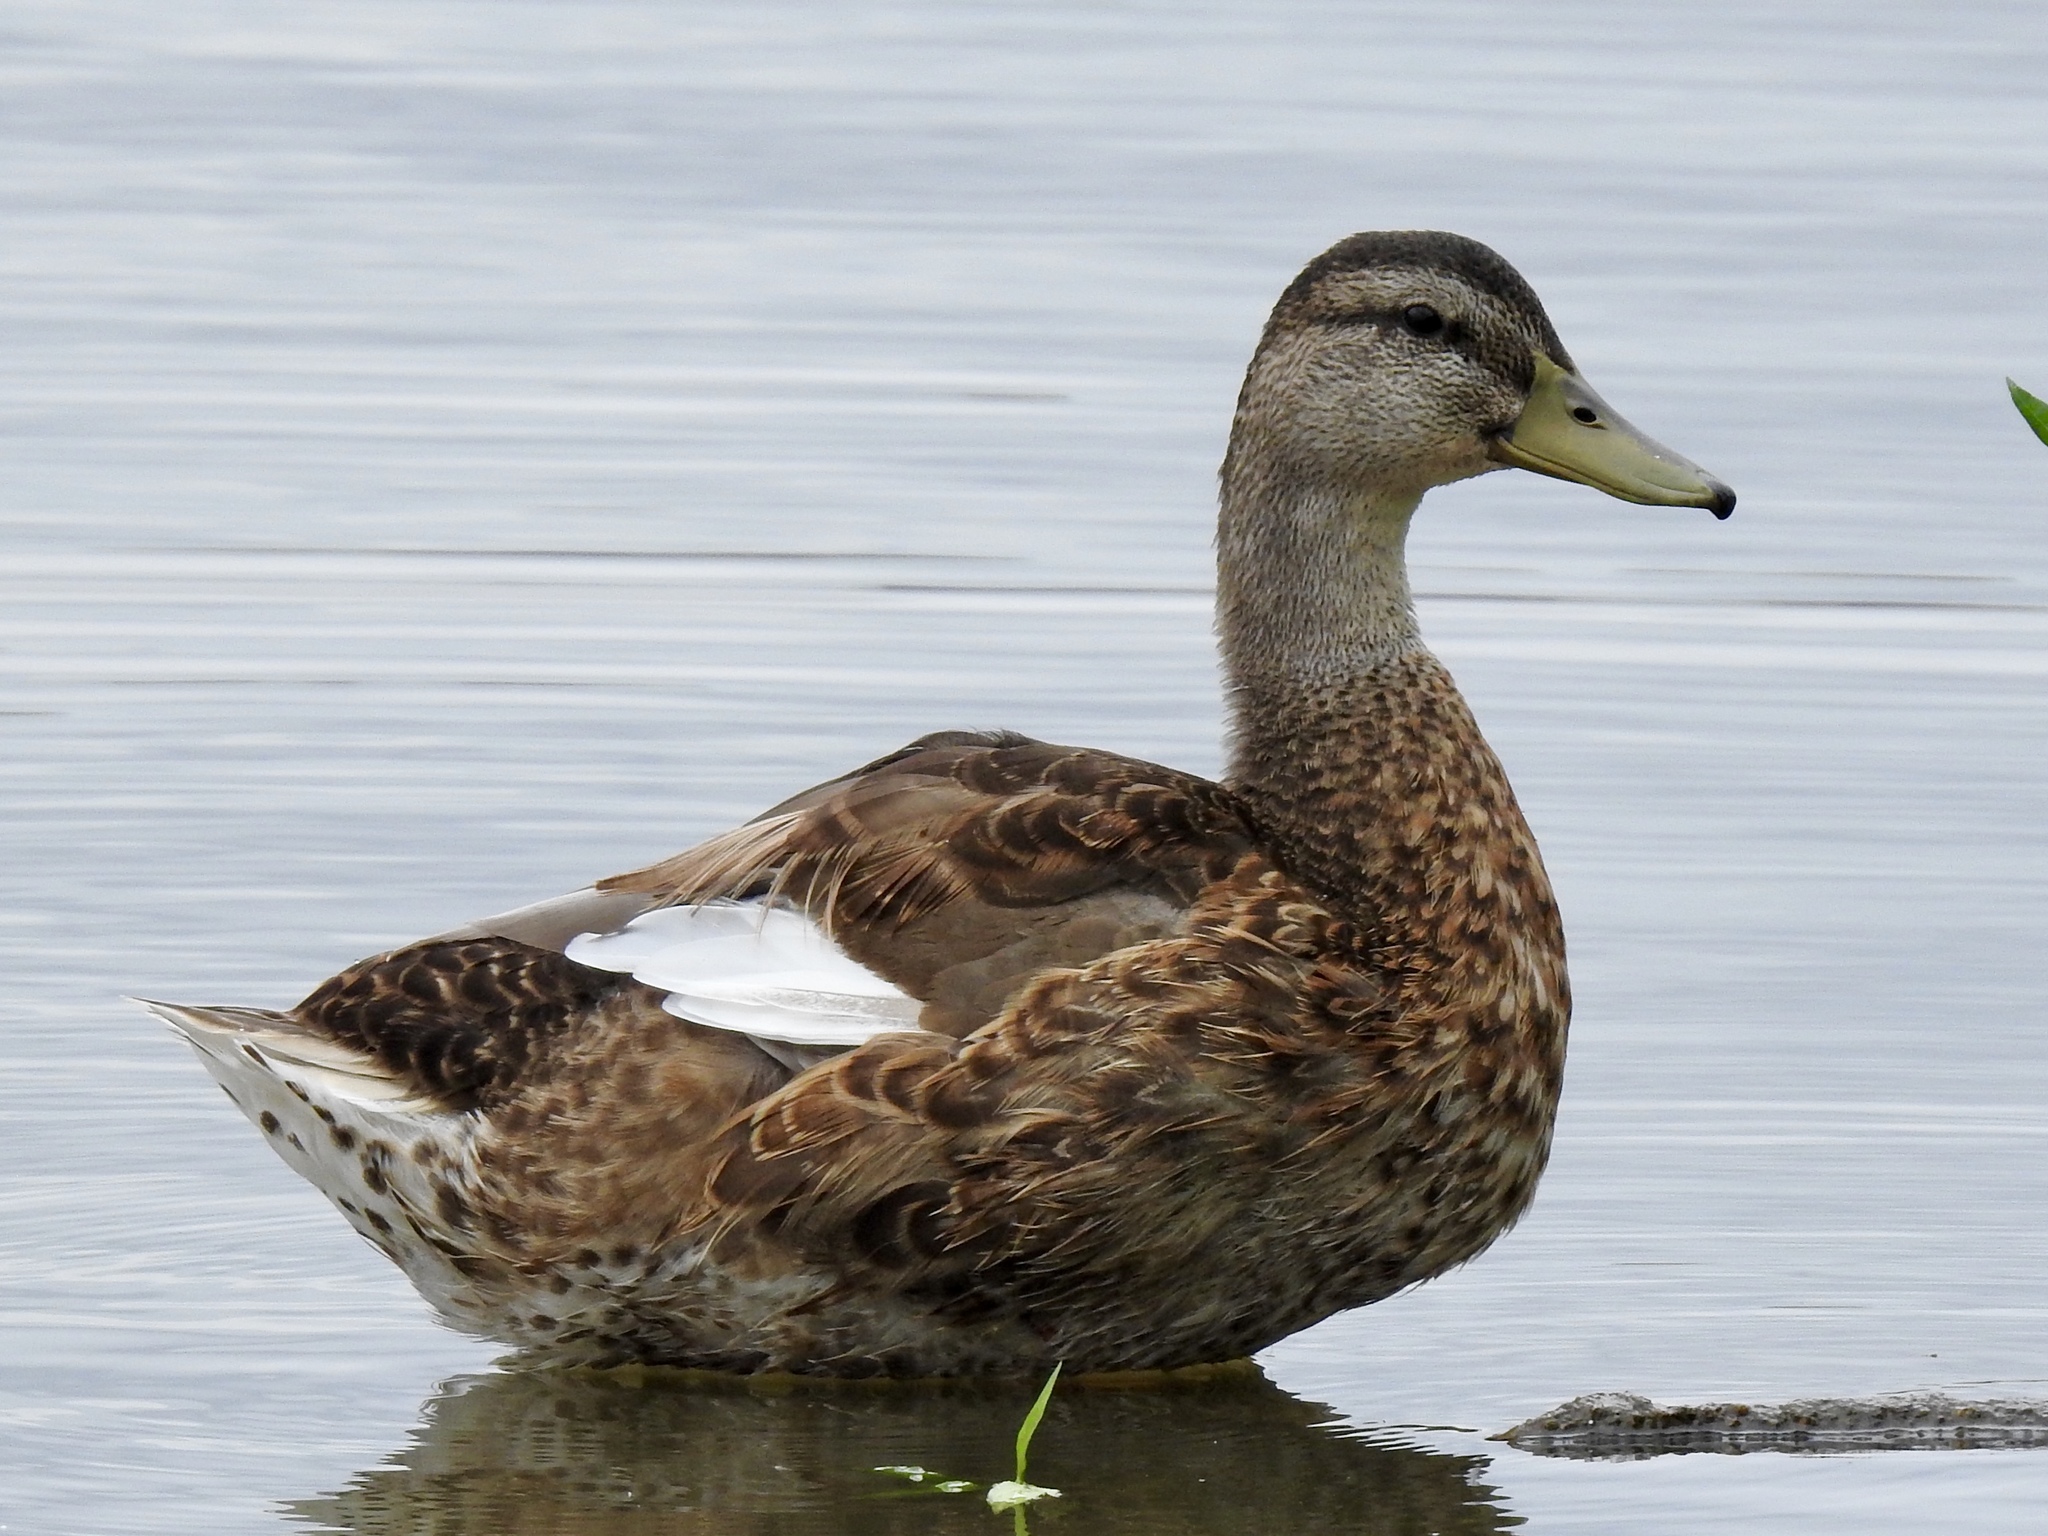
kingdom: Animalia
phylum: Chordata
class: Aves
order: Anseriformes
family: Anatidae
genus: Anas
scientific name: Anas platyrhynchos
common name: Mallard
